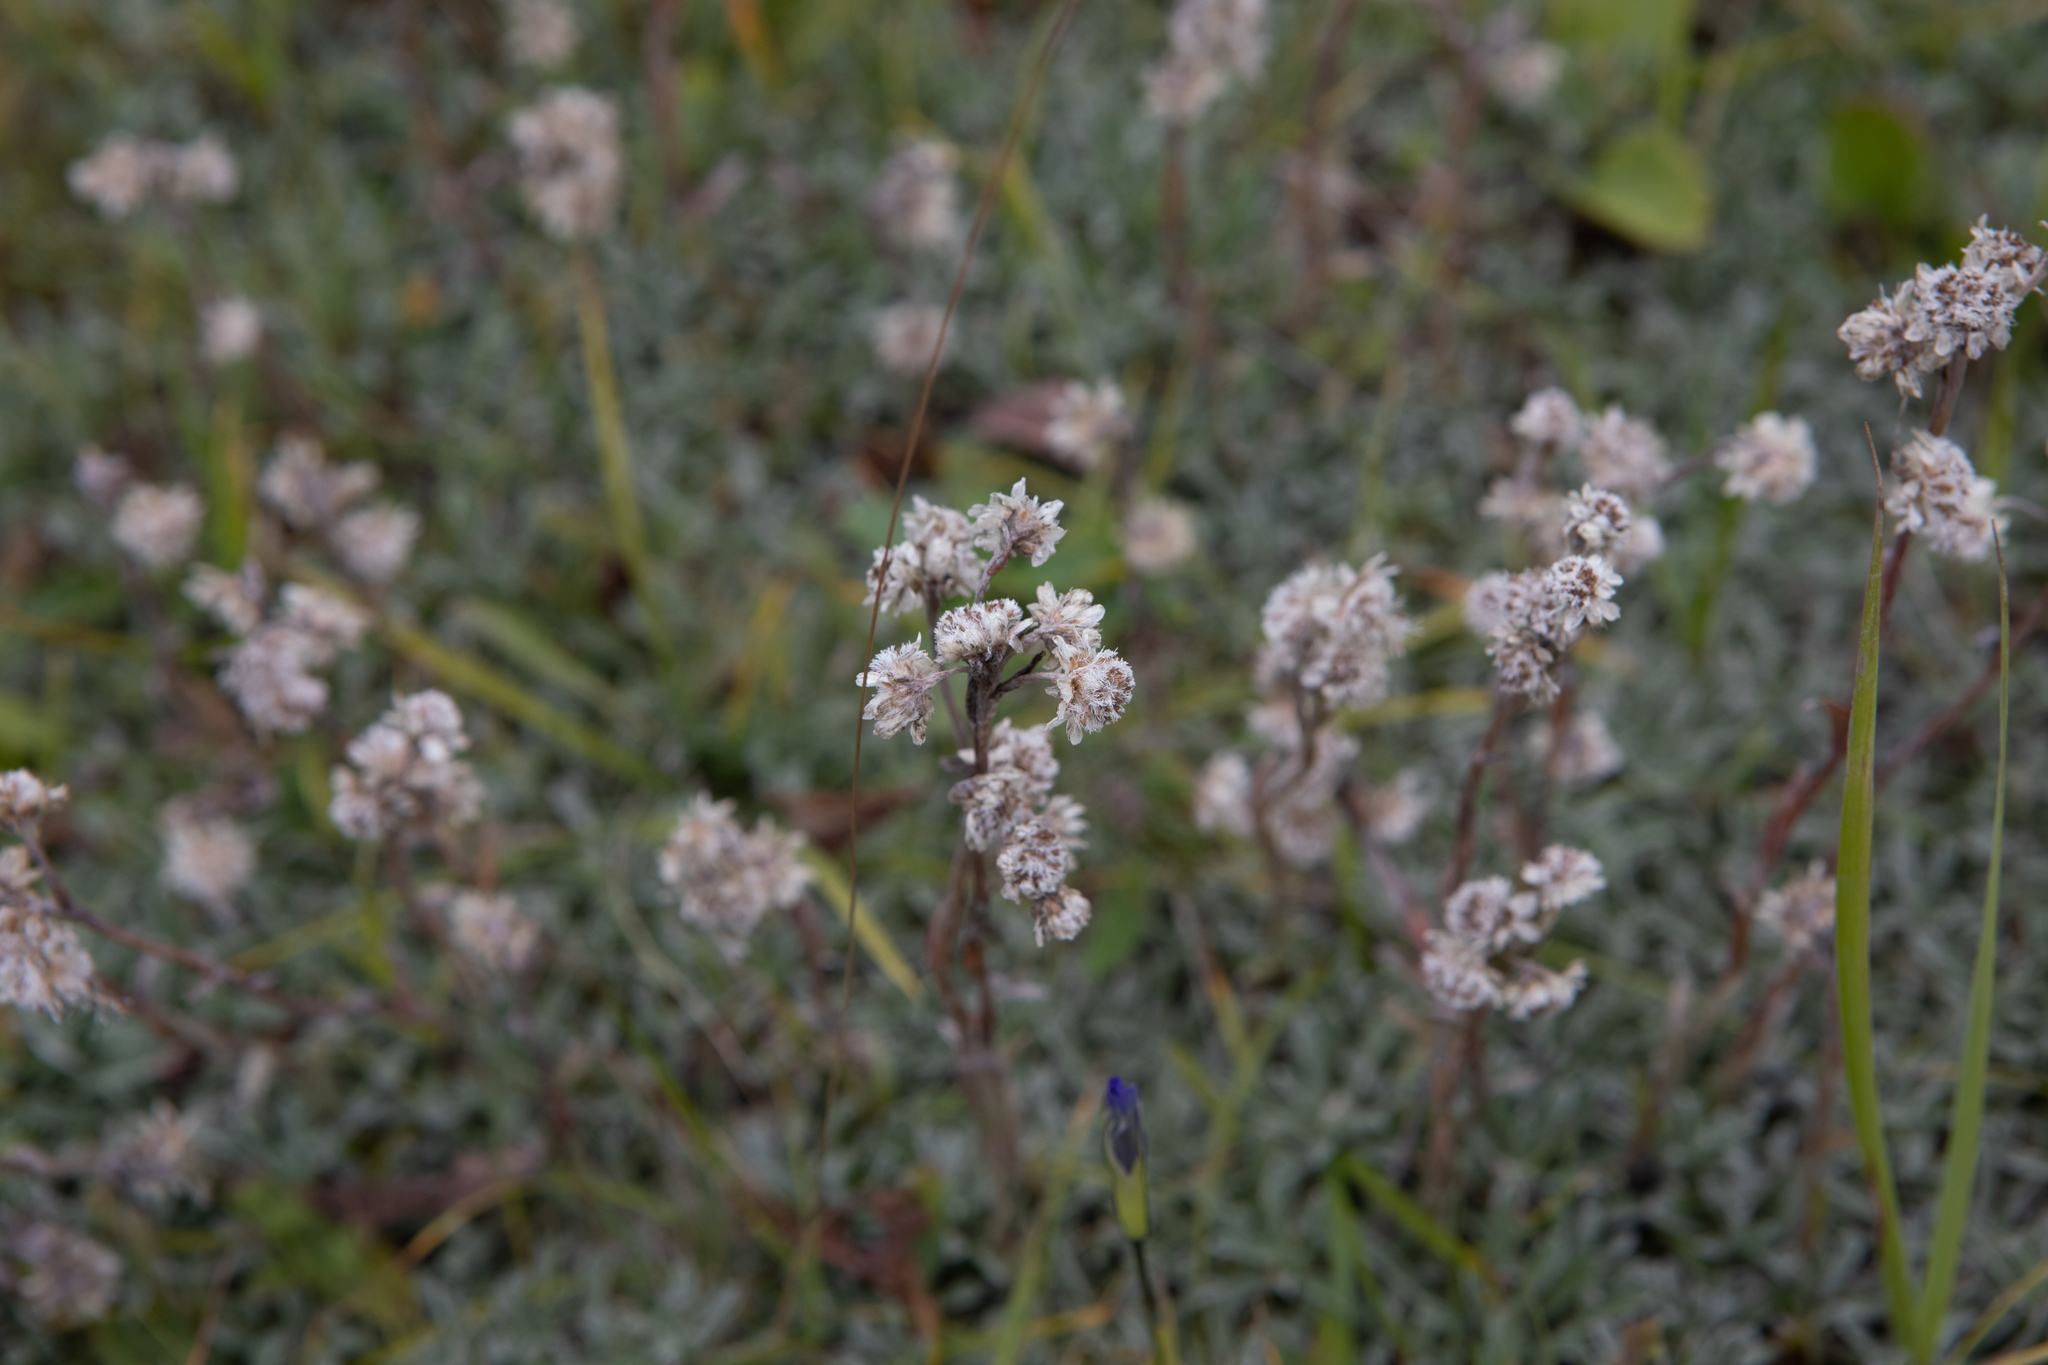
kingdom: Plantae
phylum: Tracheophyta
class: Magnoliopsida
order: Asterales
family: Asteraceae
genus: Antennaria
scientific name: Antennaria dioica
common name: Mountain everlasting
